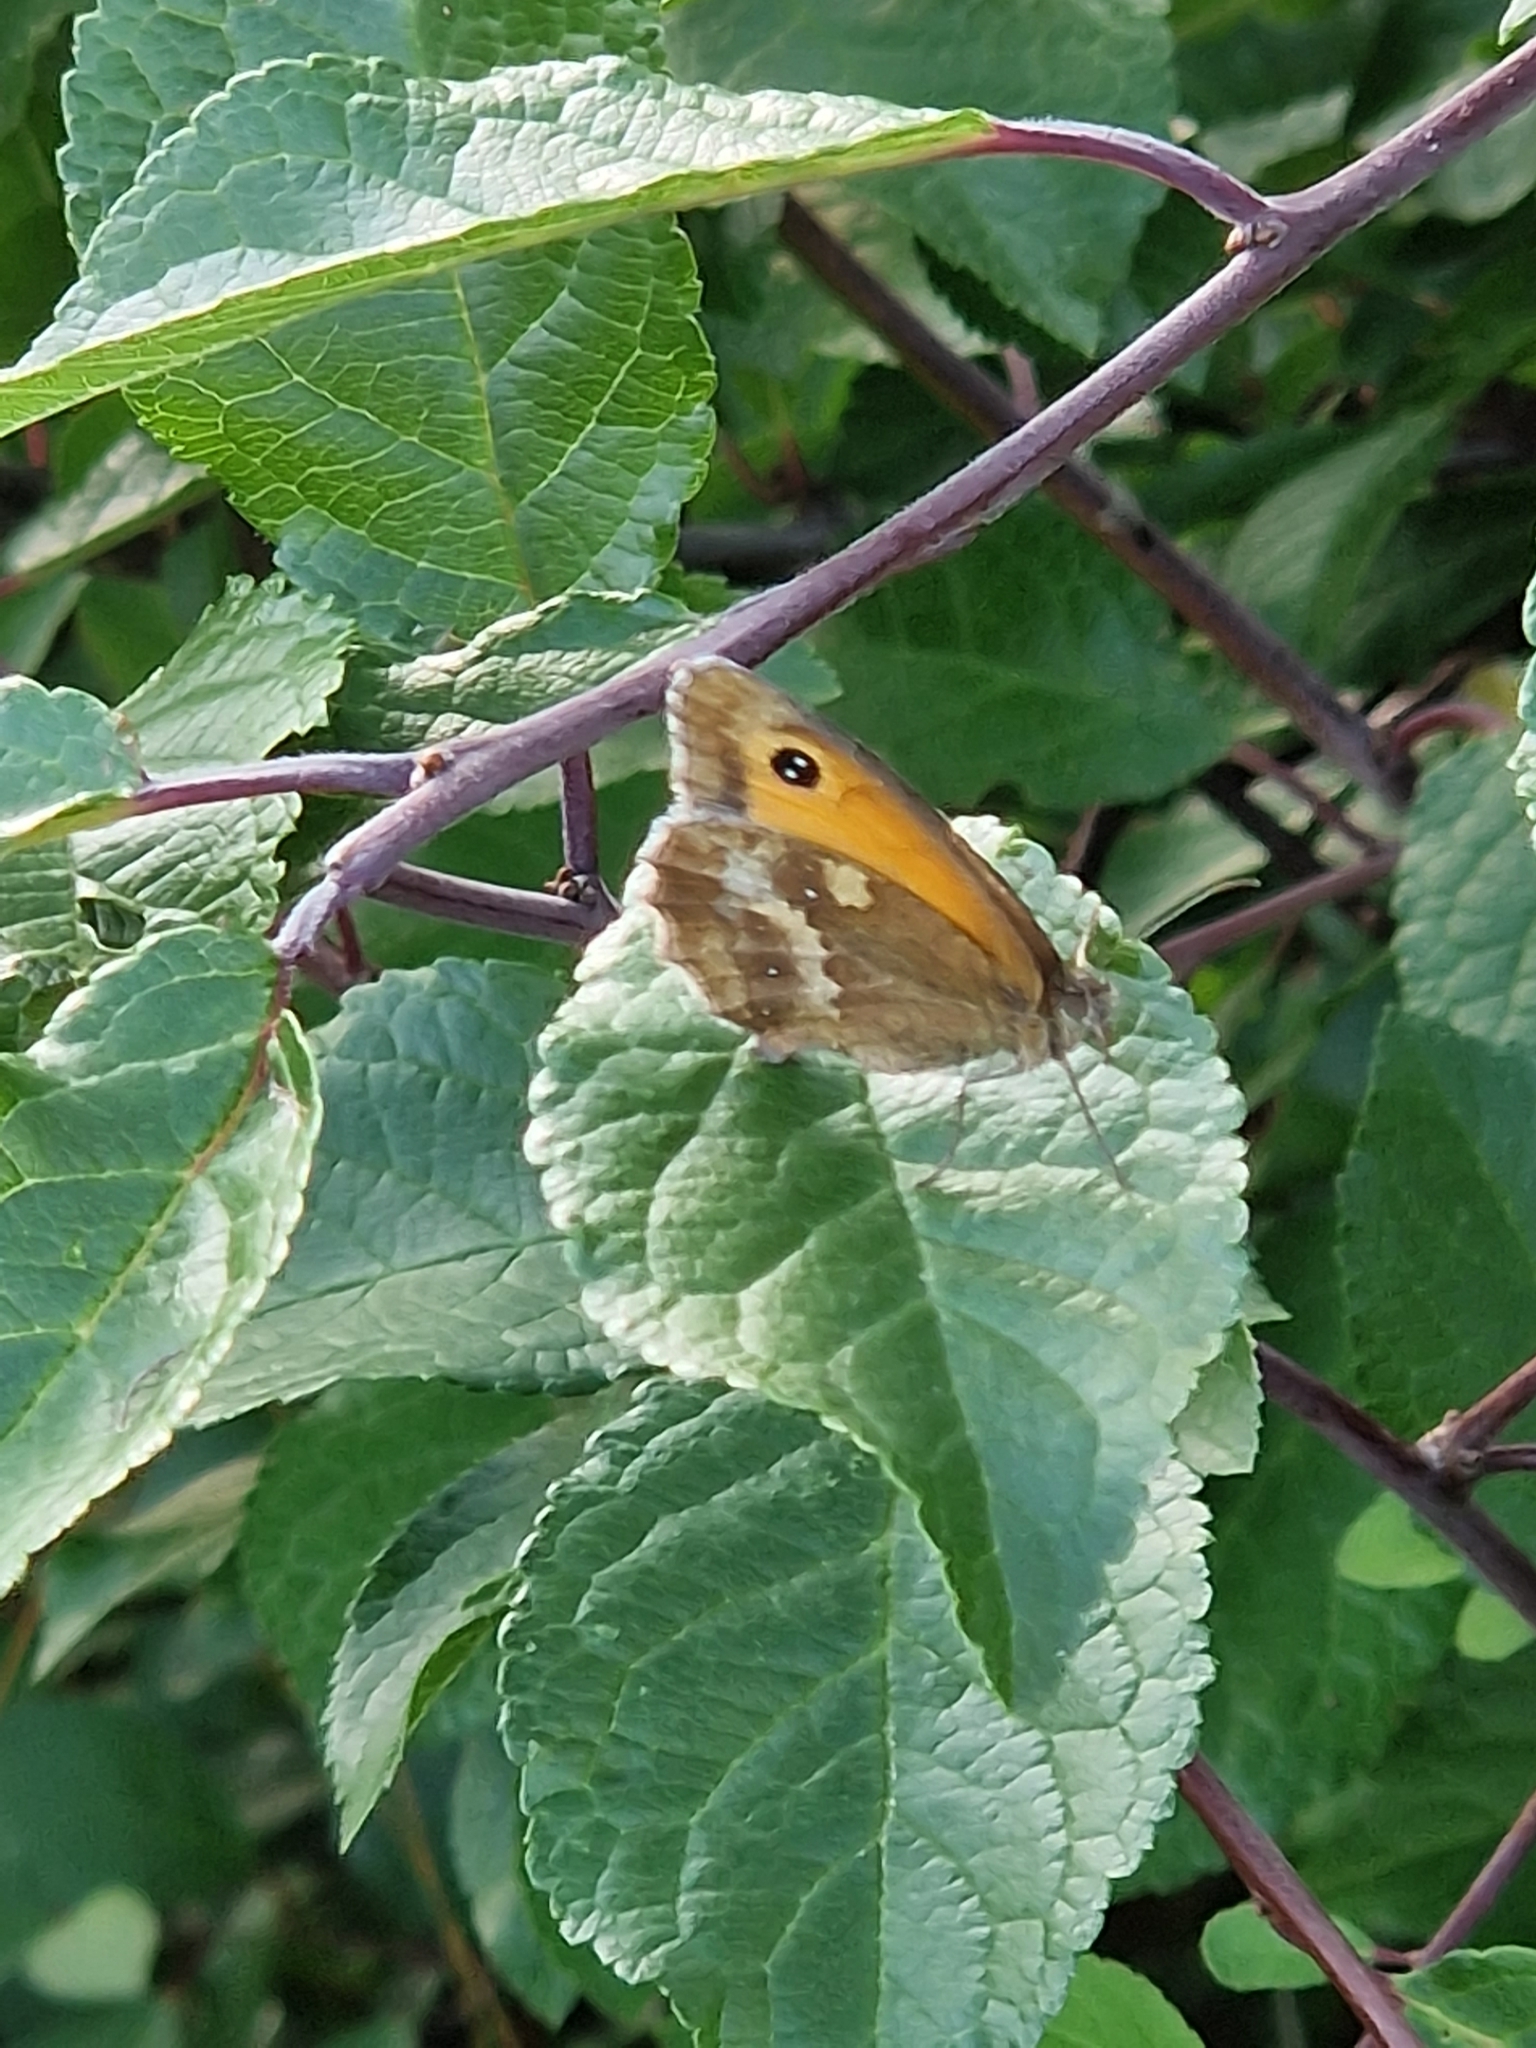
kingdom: Animalia
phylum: Arthropoda
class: Insecta
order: Lepidoptera
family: Nymphalidae
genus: Pyronia
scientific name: Pyronia tithonus
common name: Gatekeeper
